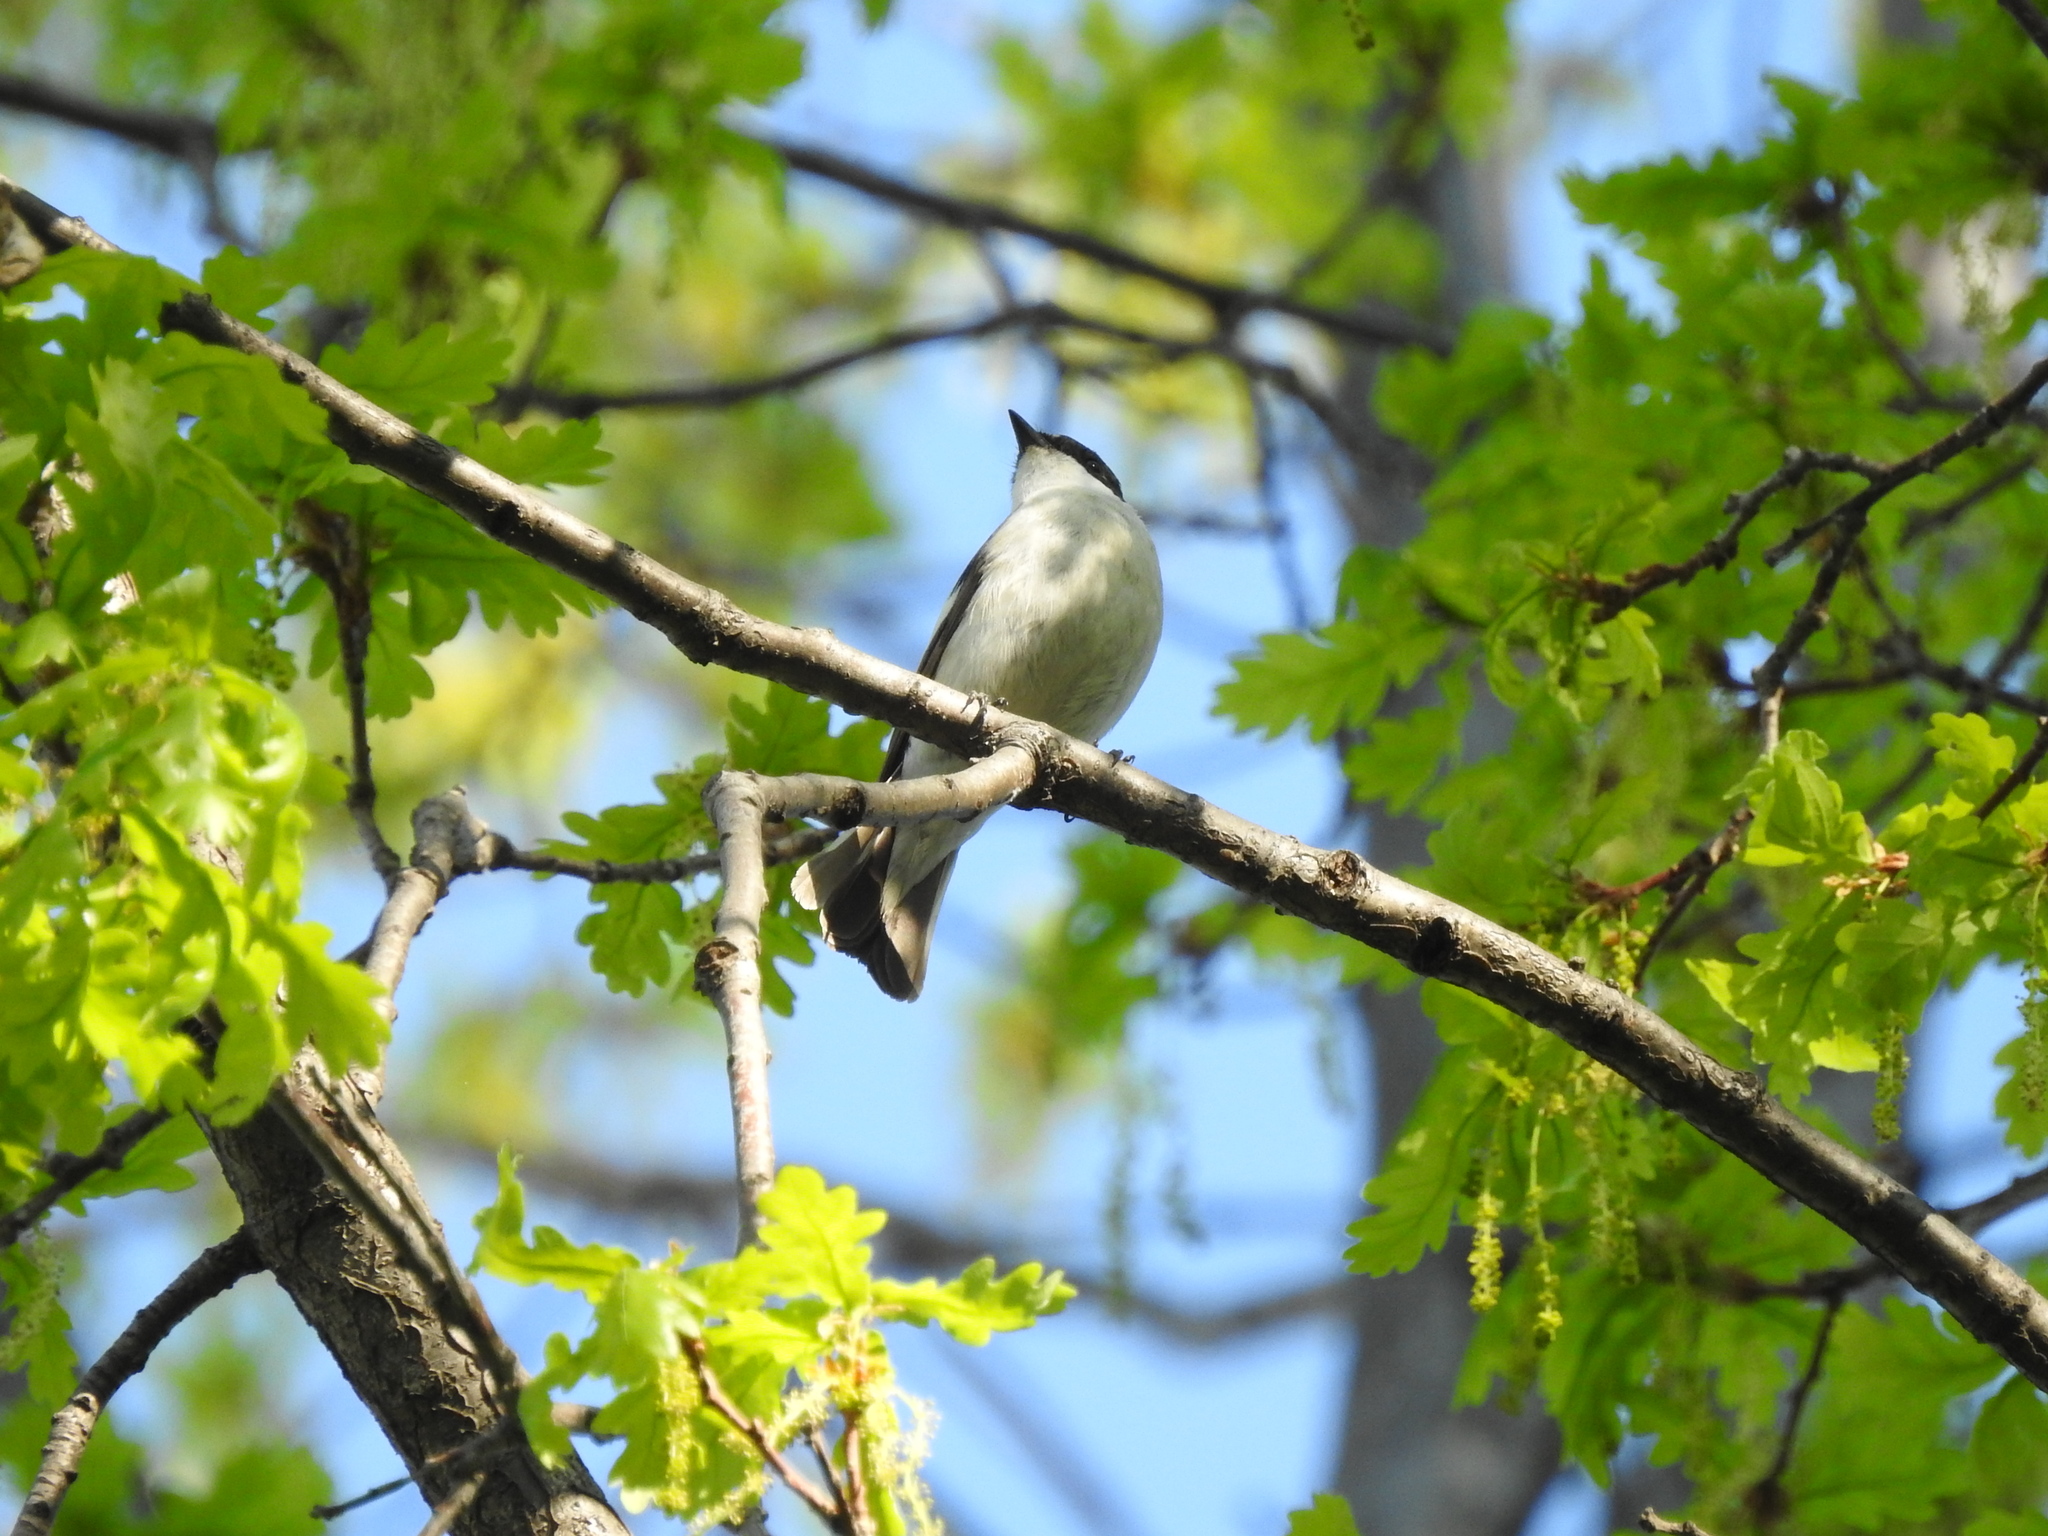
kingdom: Animalia
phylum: Chordata
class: Aves
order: Passeriformes
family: Muscicapidae
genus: Ficedula
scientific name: Ficedula hypoleuca
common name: European pied flycatcher
